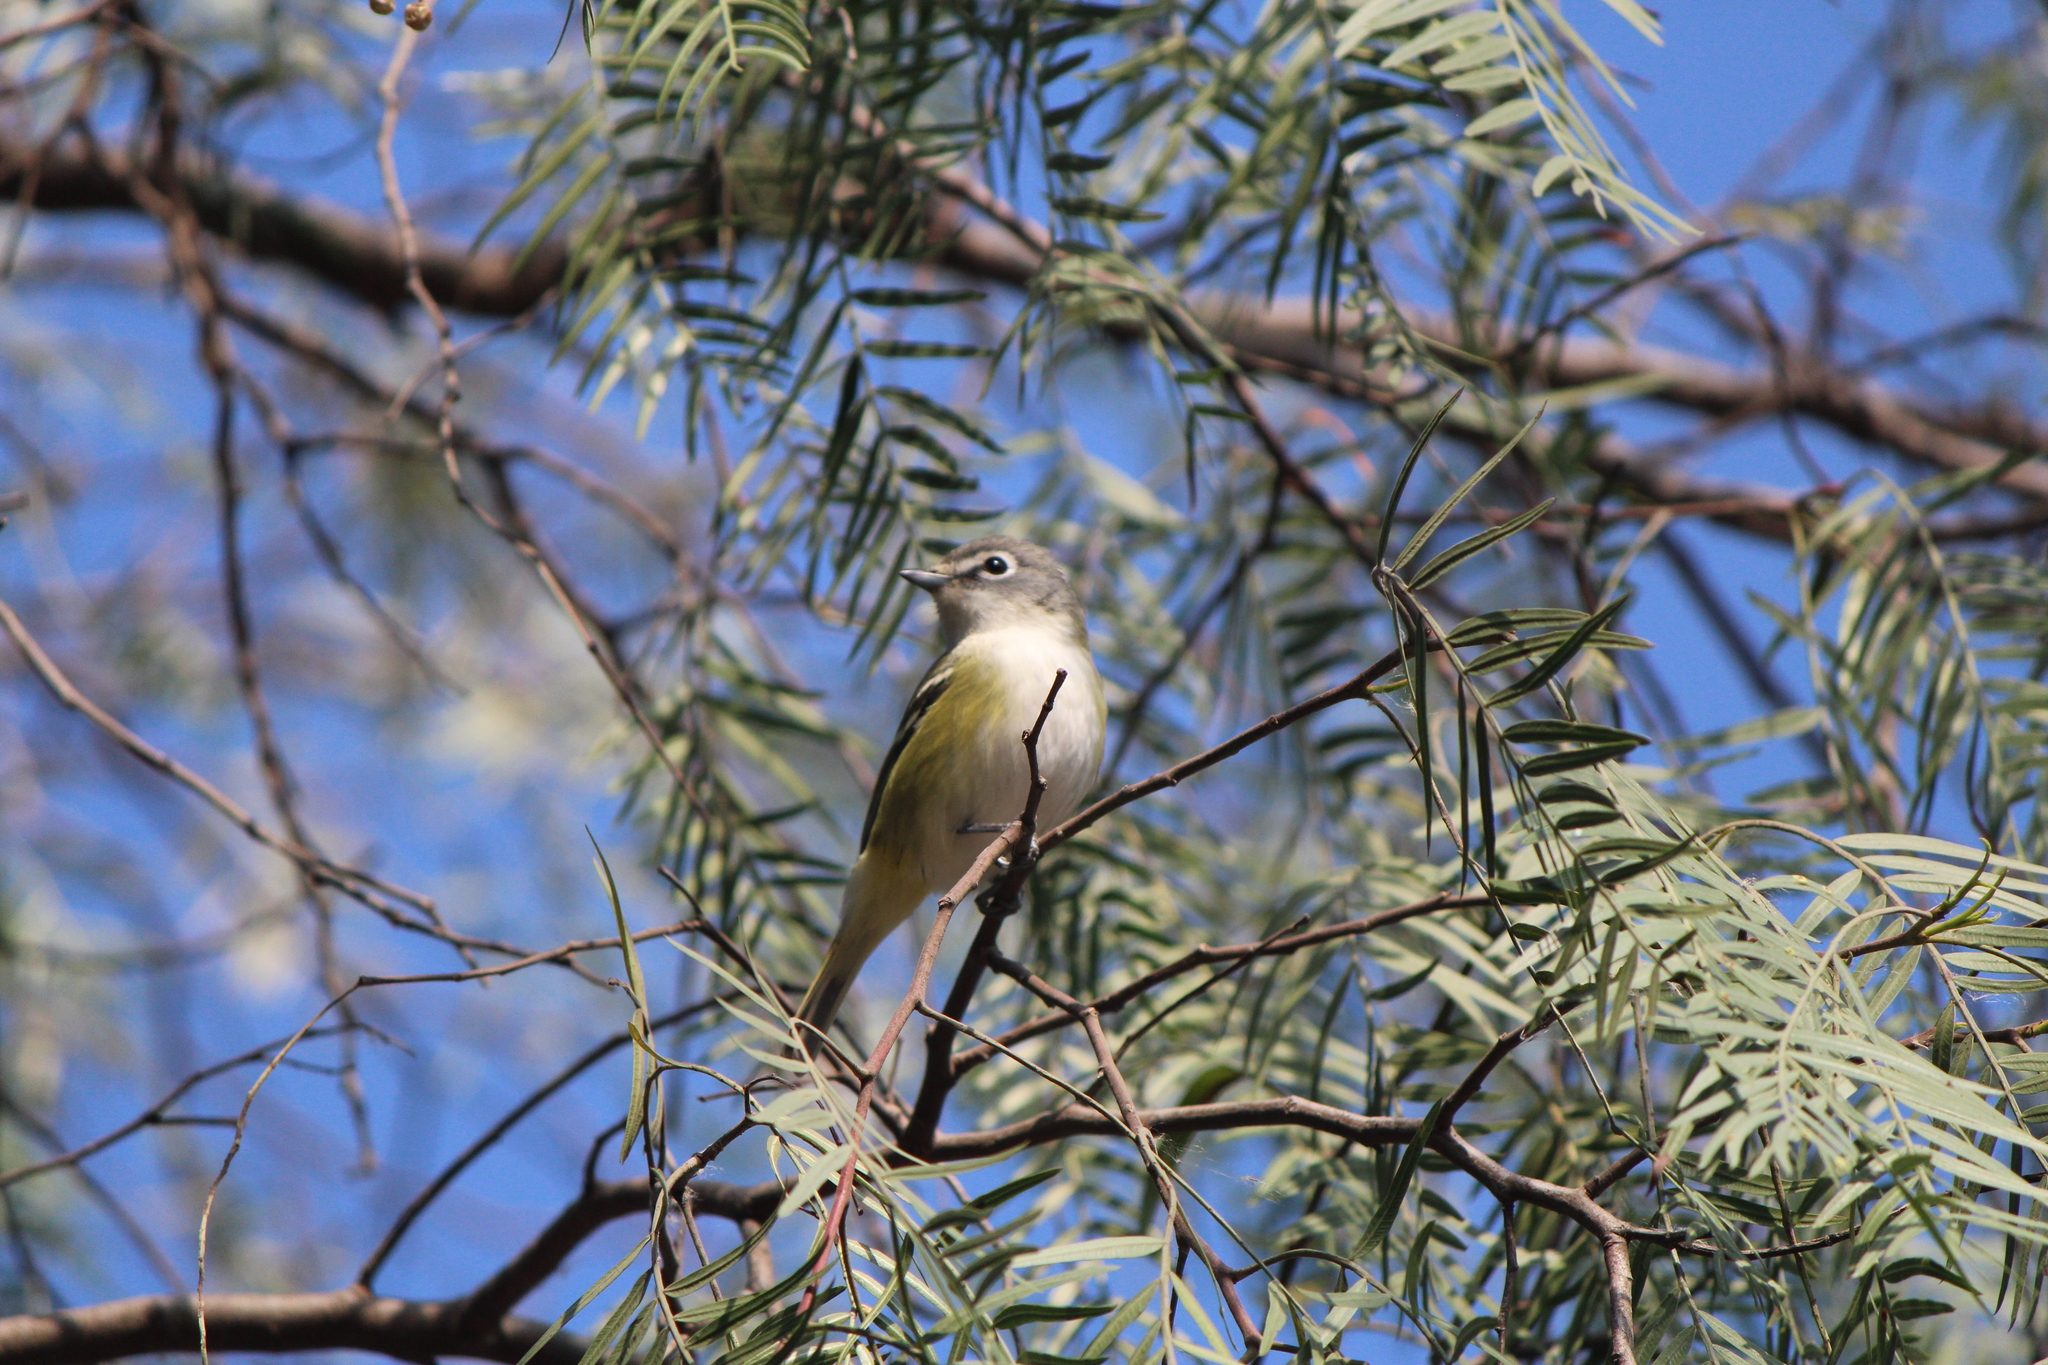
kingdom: Animalia
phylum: Chordata
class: Aves
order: Passeriformes
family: Vireonidae
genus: Vireo
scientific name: Vireo cassinii
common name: Cassin's vireo
